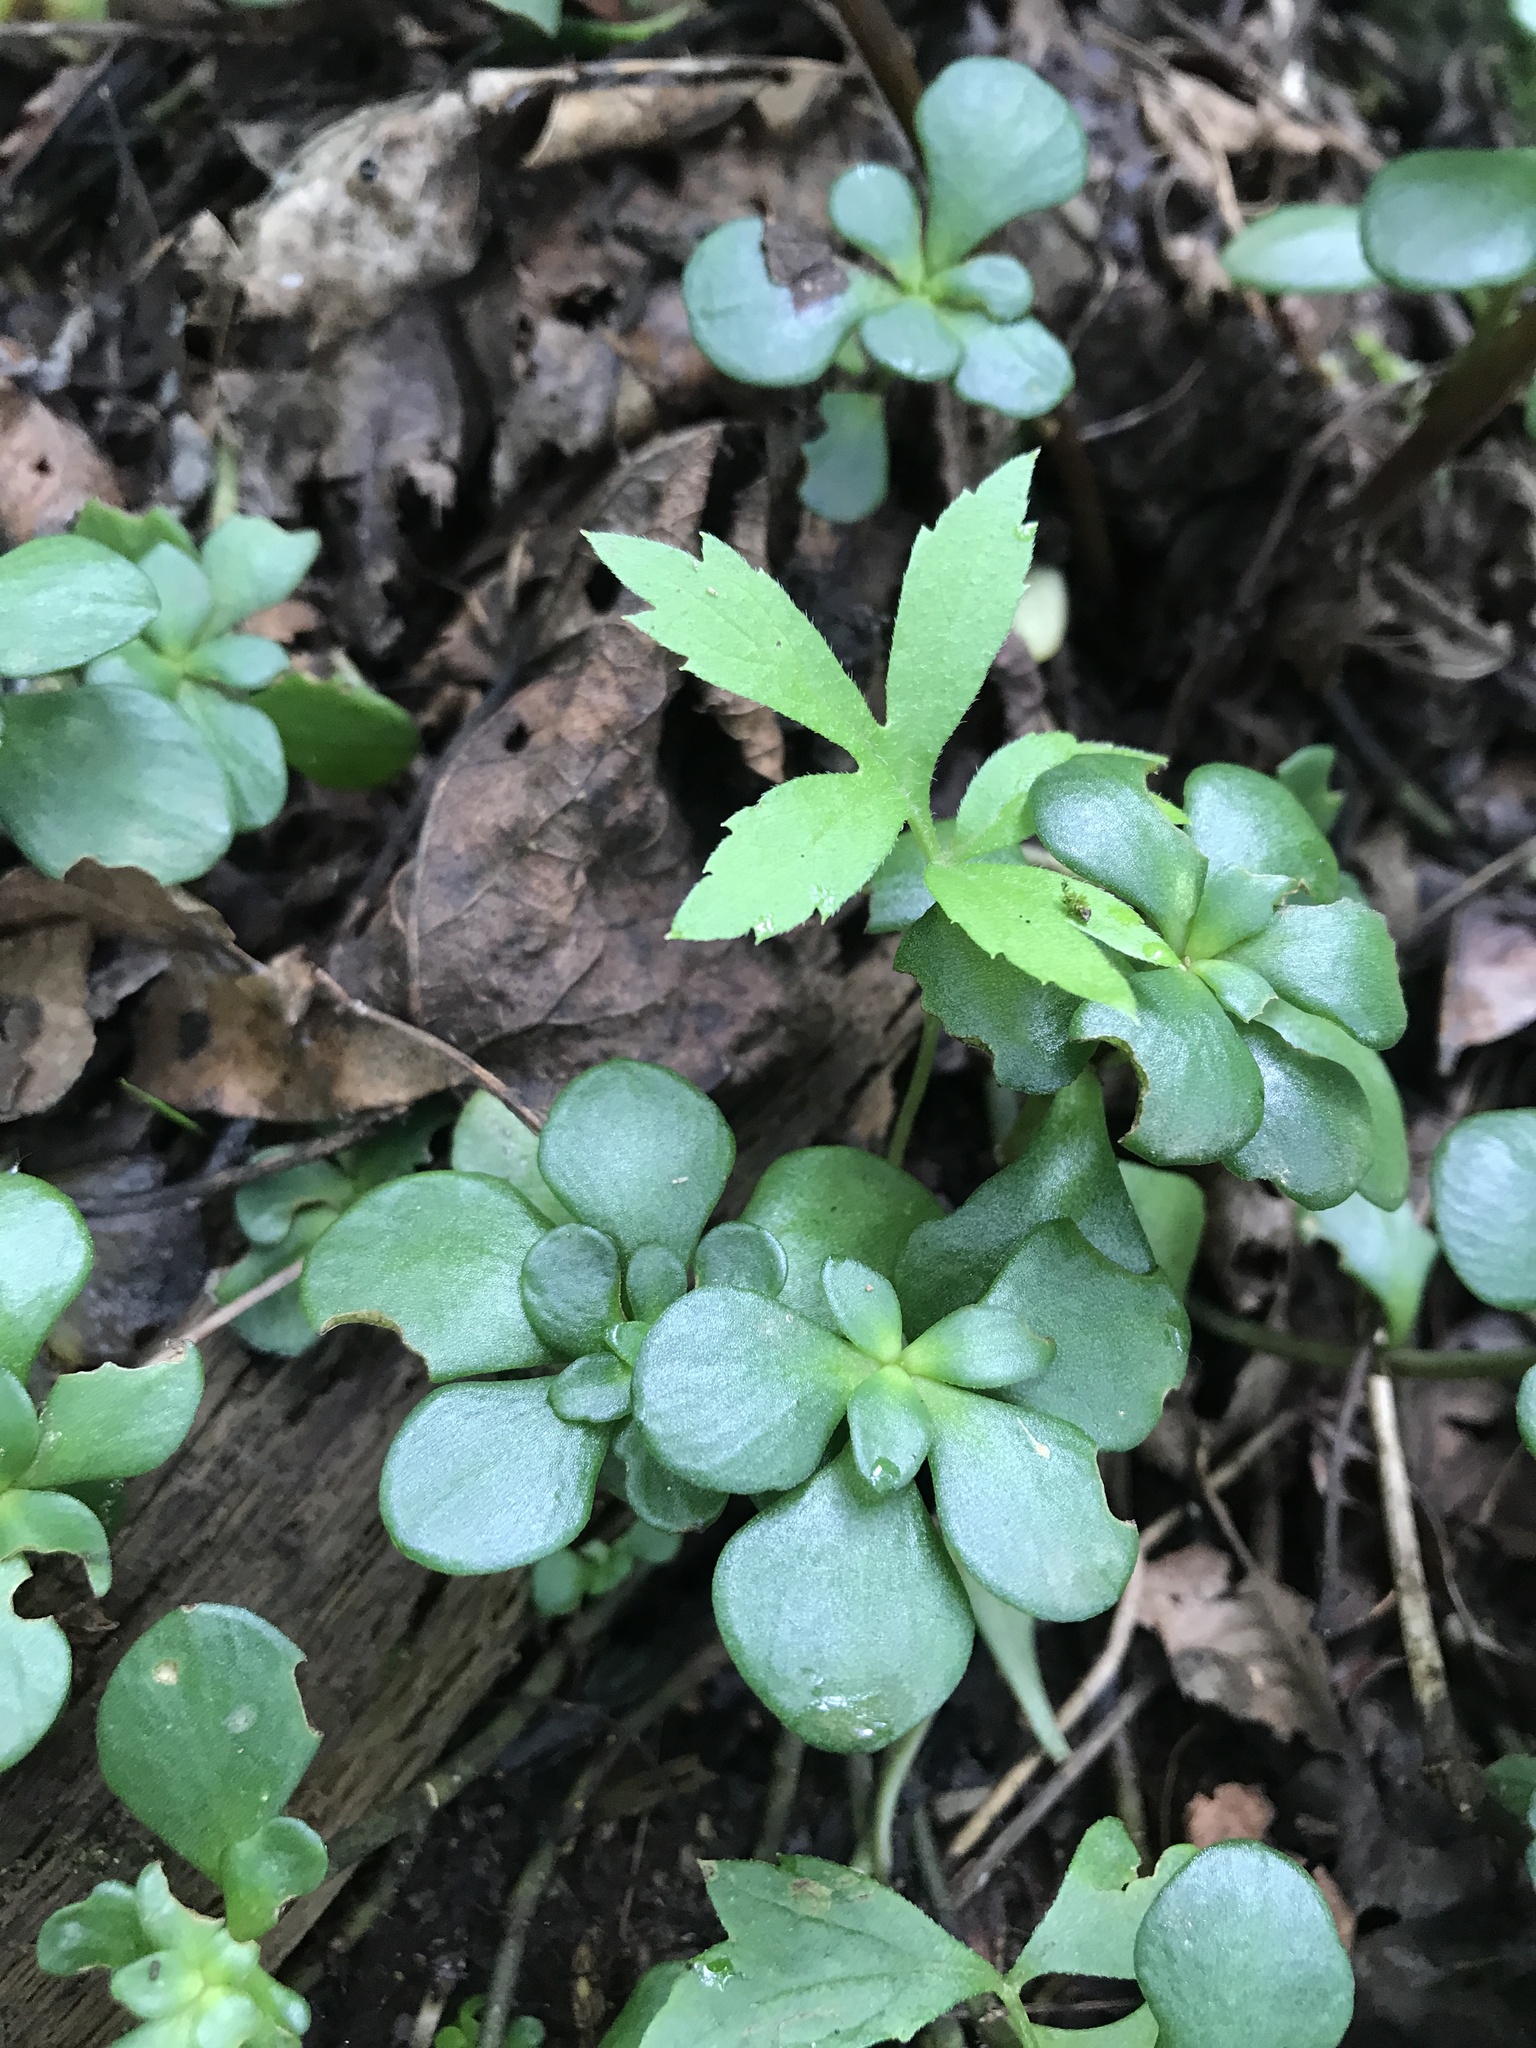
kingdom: Plantae
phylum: Tracheophyta
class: Magnoliopsida
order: Saxifragales
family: Crassulaceae
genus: Sedum
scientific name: Sedum ternatum
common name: Wild stonecrop
